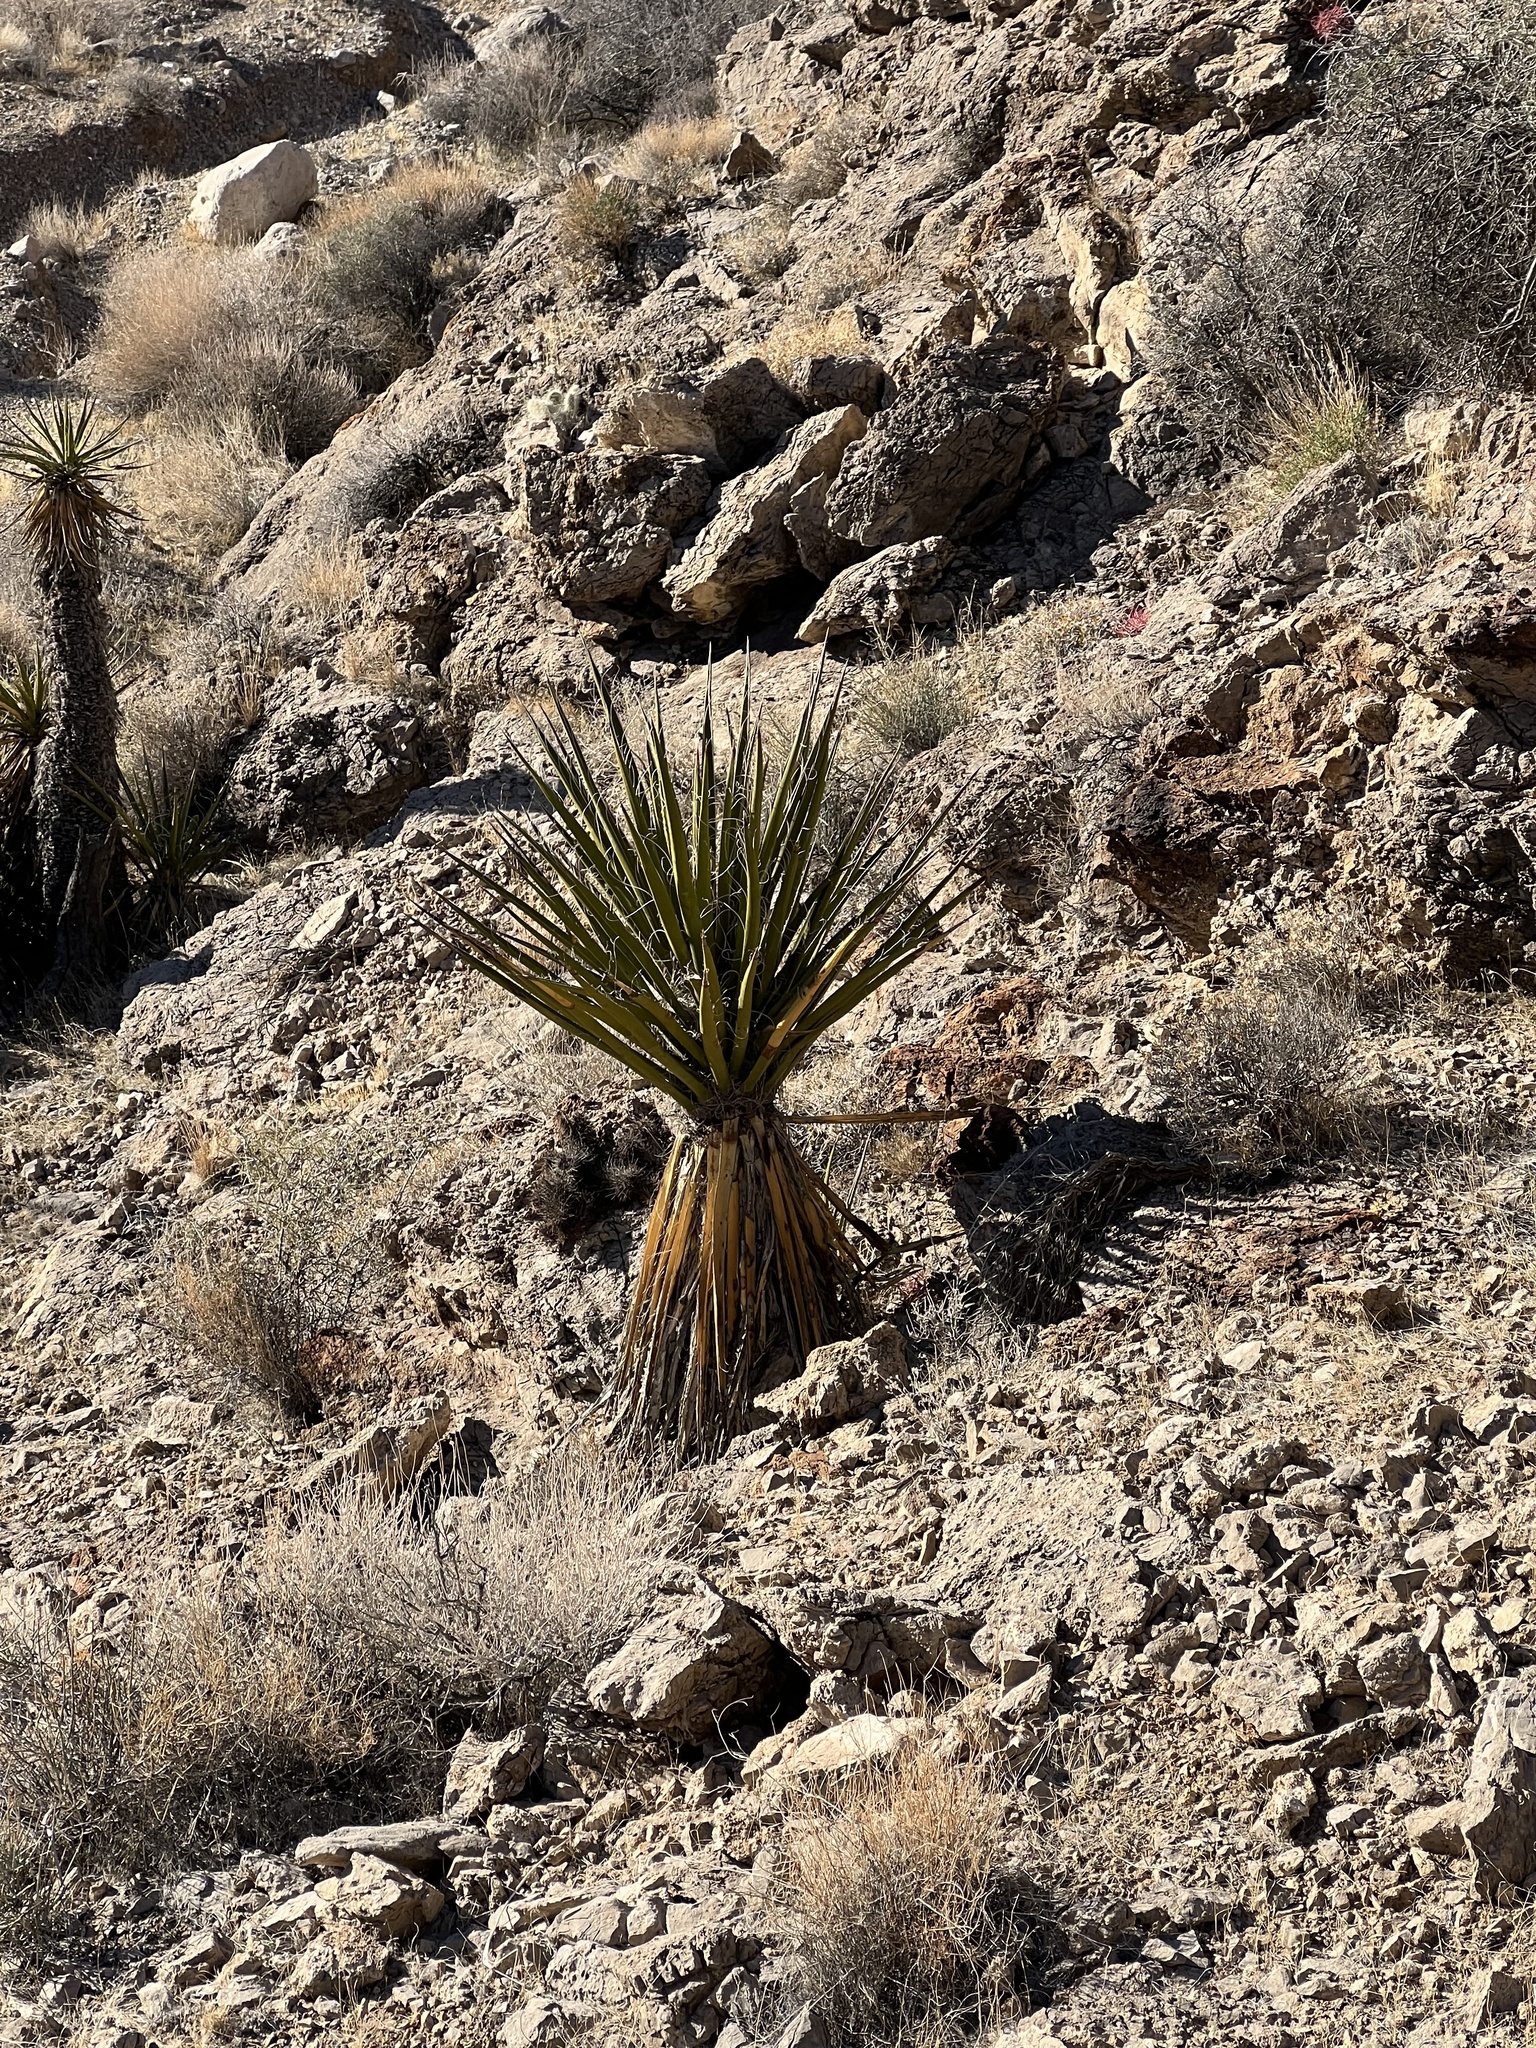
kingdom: Plantae
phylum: Tracheophyta
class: Liliopsida
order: Asparagales
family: Asparagaceae
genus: Yucca
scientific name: Yucca schidigera
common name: Mojave yucca
